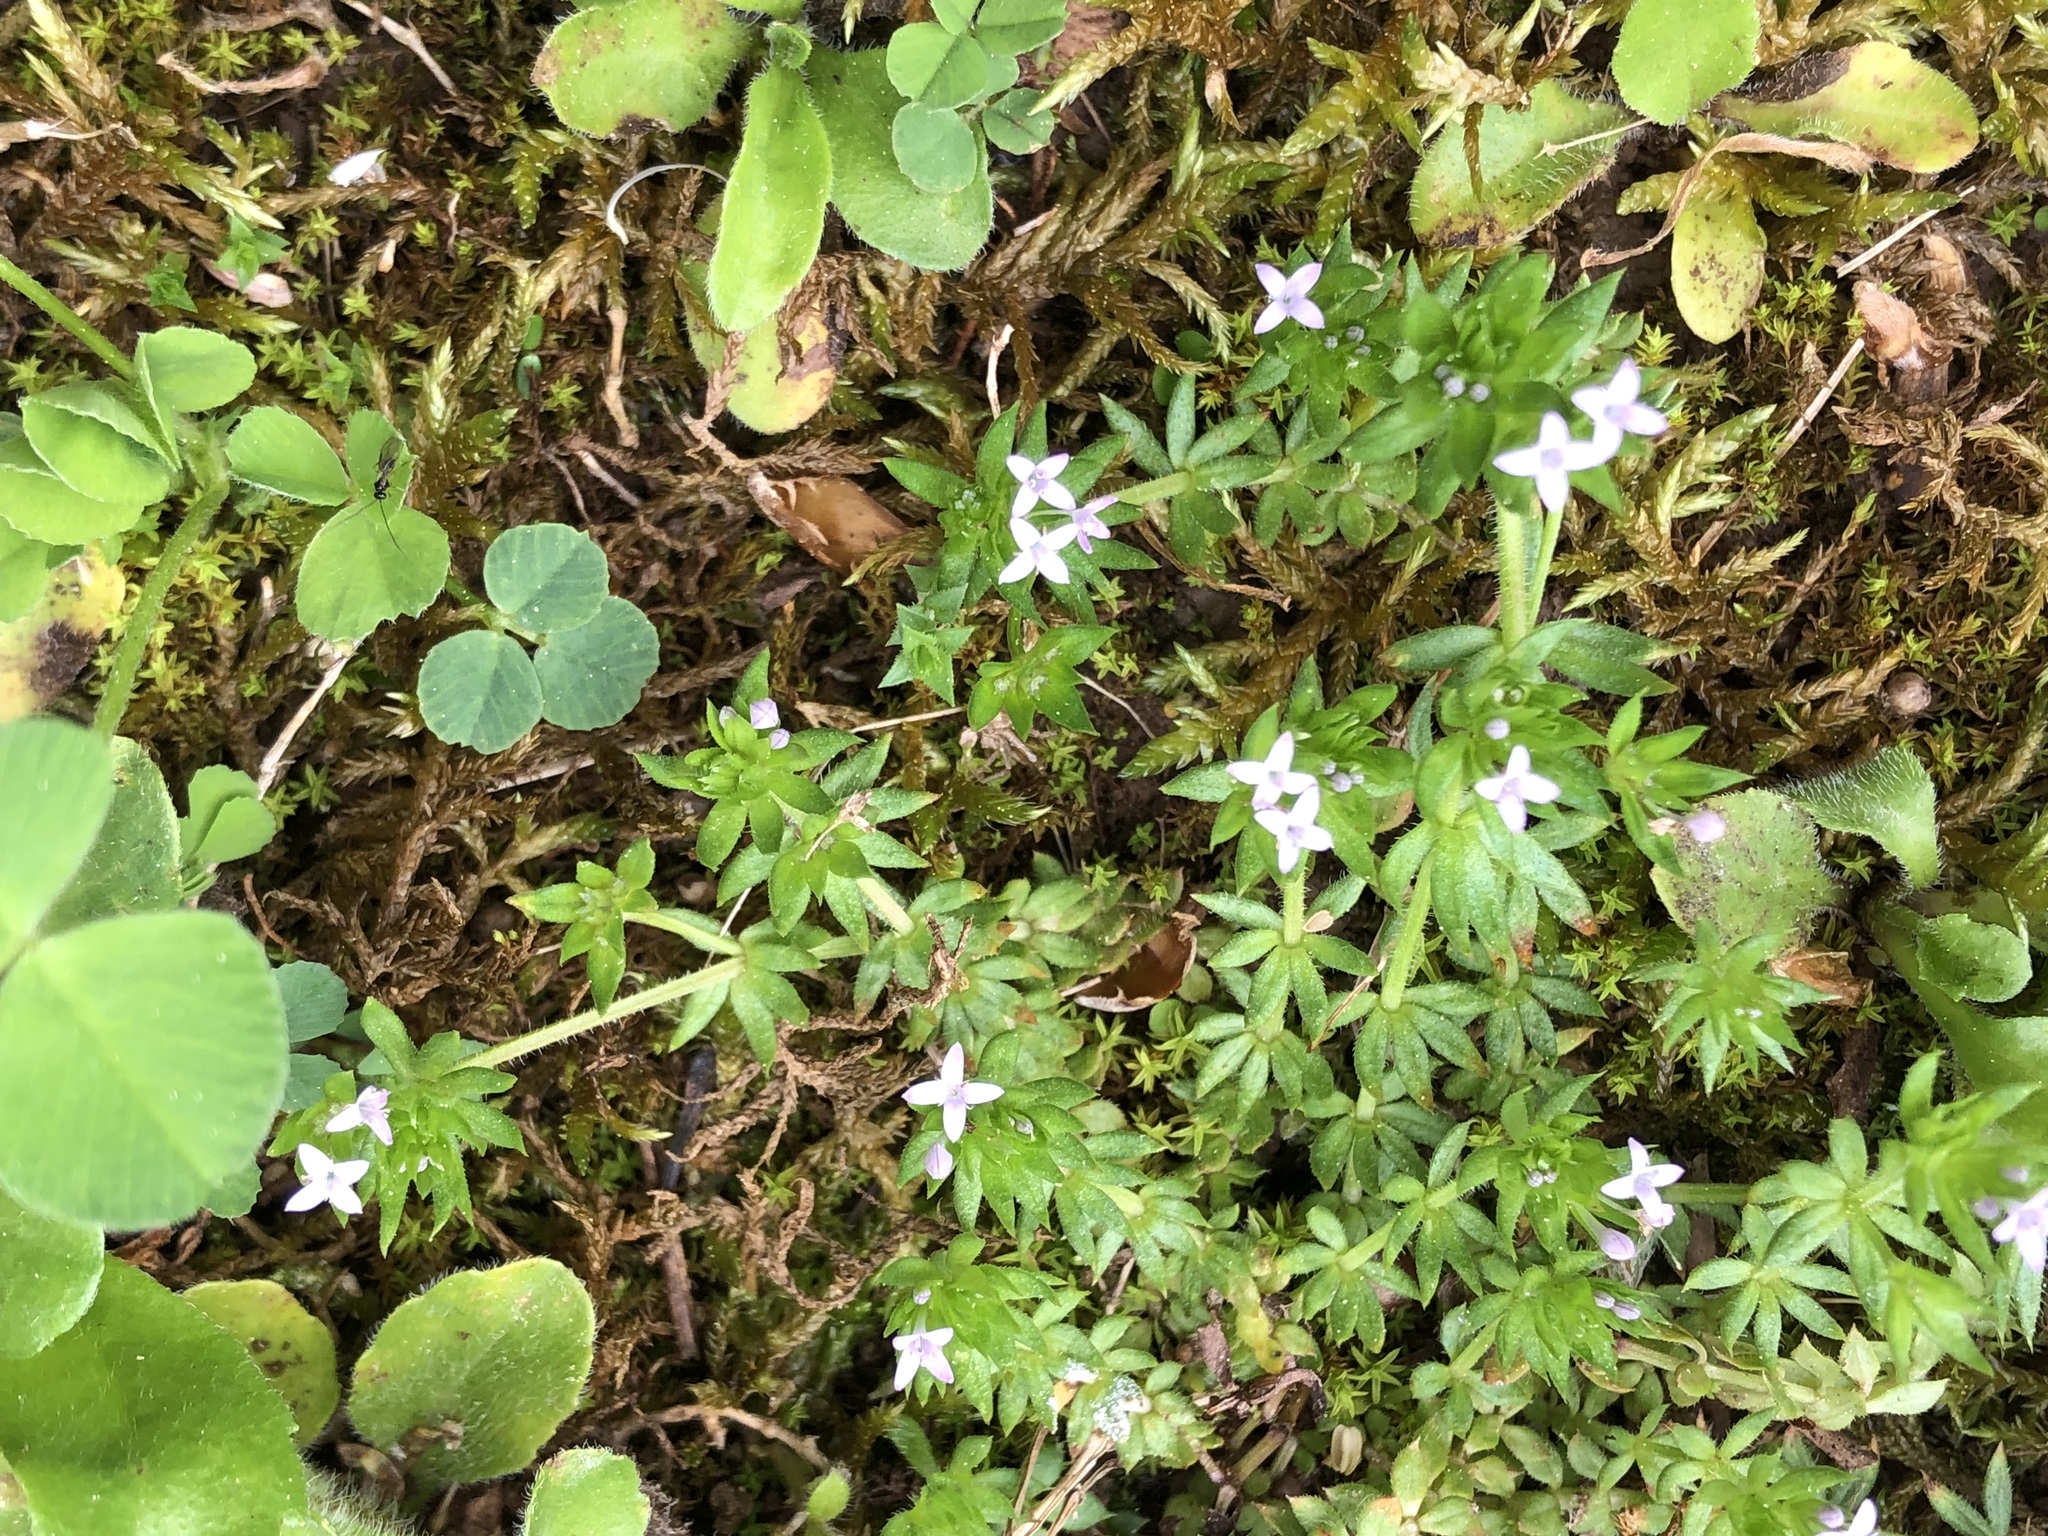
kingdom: Plantae
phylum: Tracheophyta
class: Magnoliopsida
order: Gentianales
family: Rubiaceae
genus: Sherardia
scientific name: Sherardia arvensis
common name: Field madder
